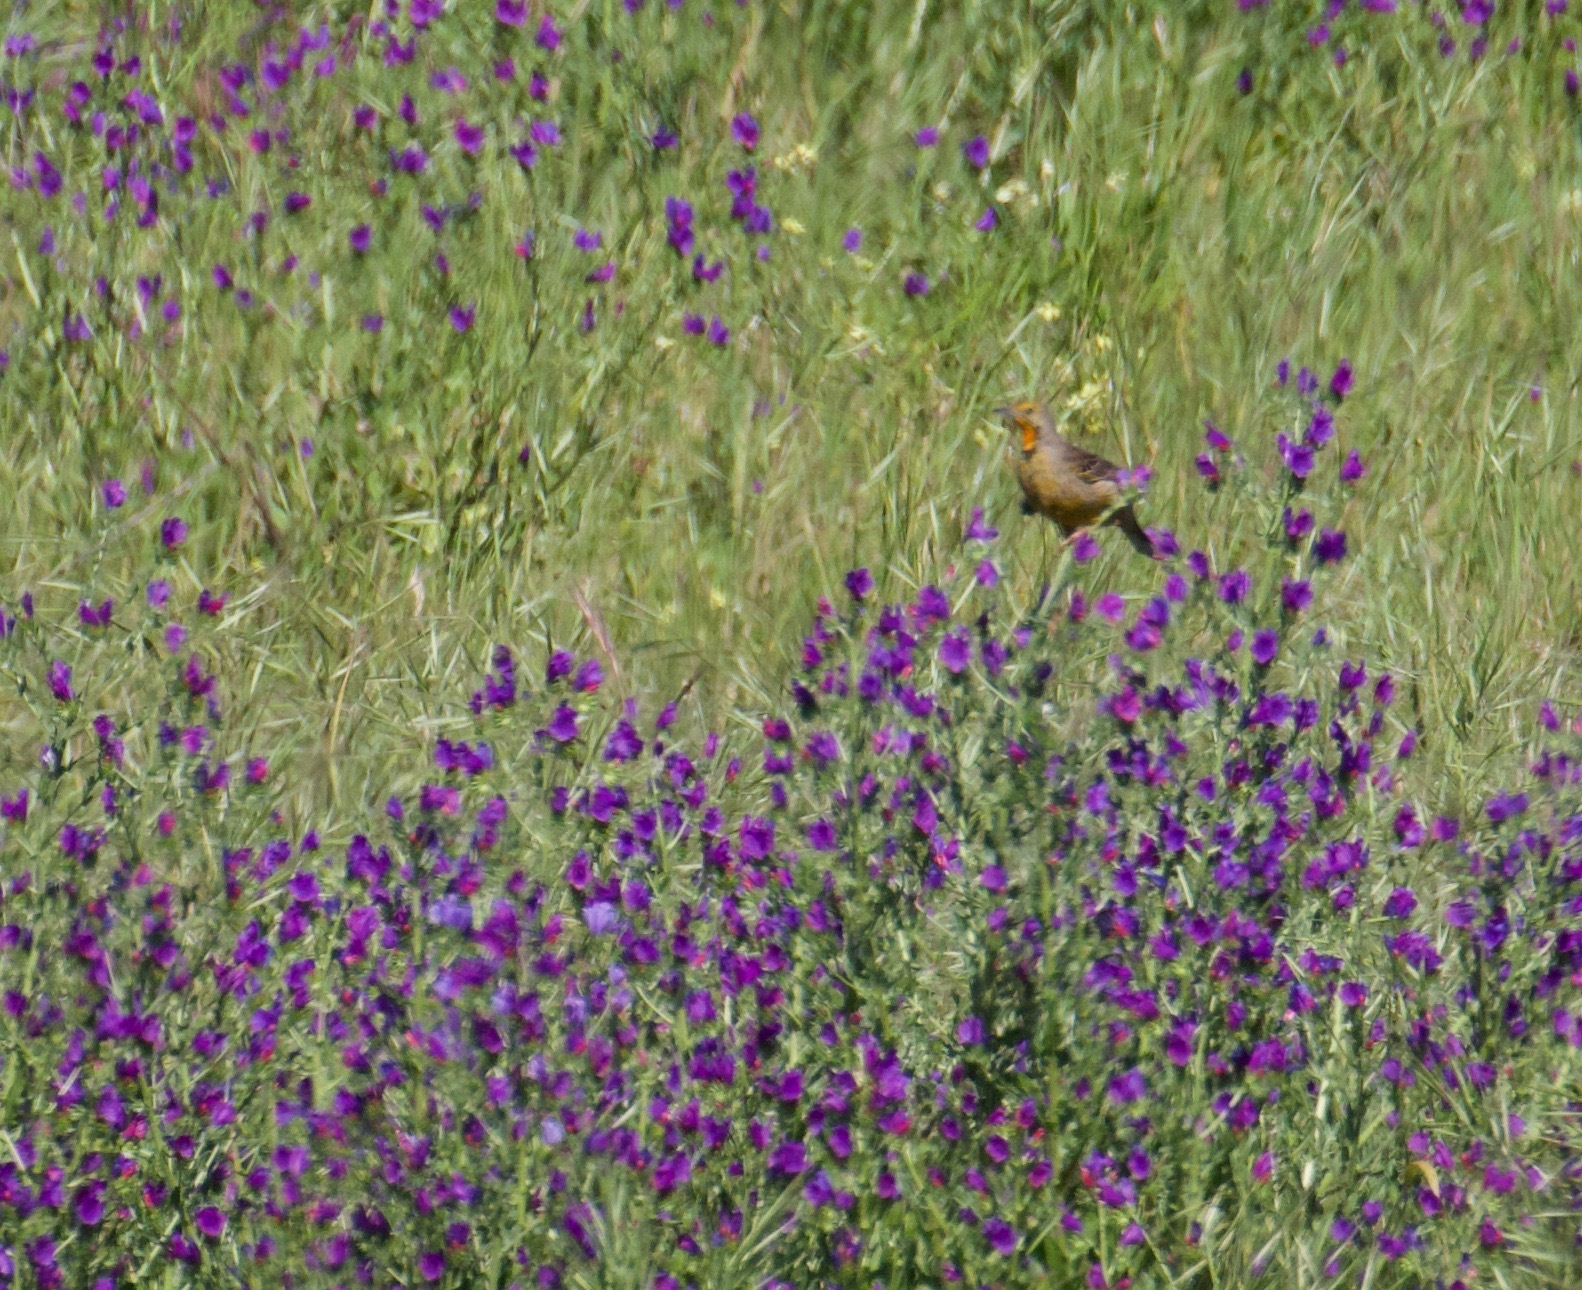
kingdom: Animalia
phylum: Chordata
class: Aves
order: Passeriformes
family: Motacillidae
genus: Macronyx
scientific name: Macronyx capensis
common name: Cape longclaw
